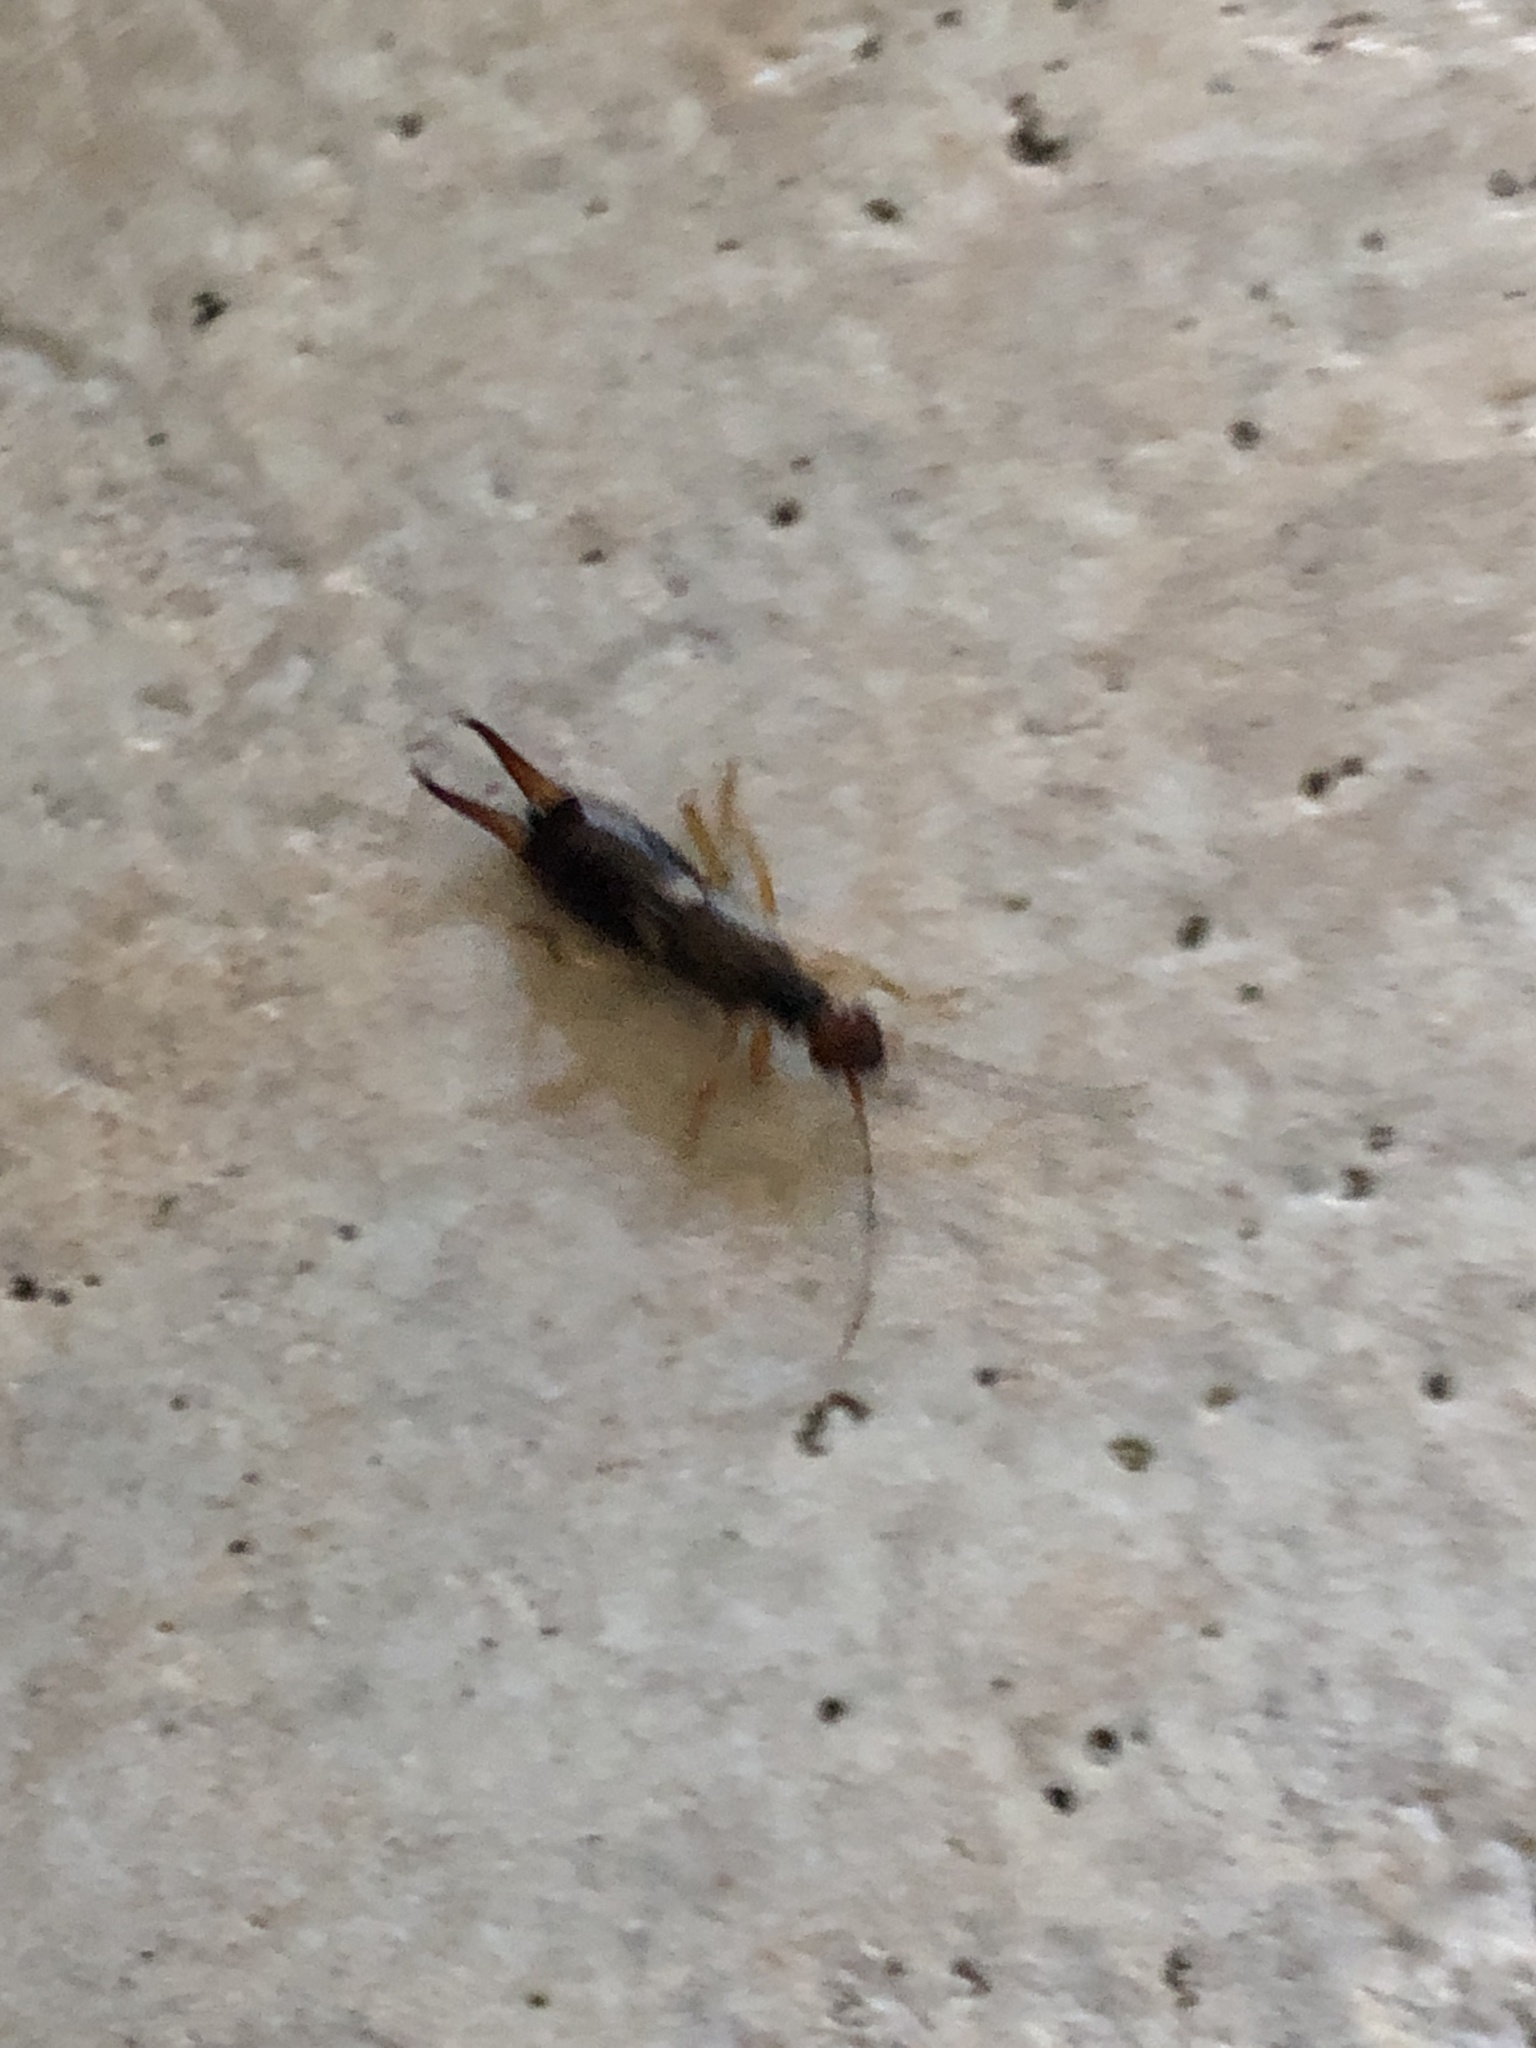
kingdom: Animalia
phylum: Arthropoda
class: Insecta
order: Dermaptera
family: Forficulidae
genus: Forficula
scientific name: Forficula
